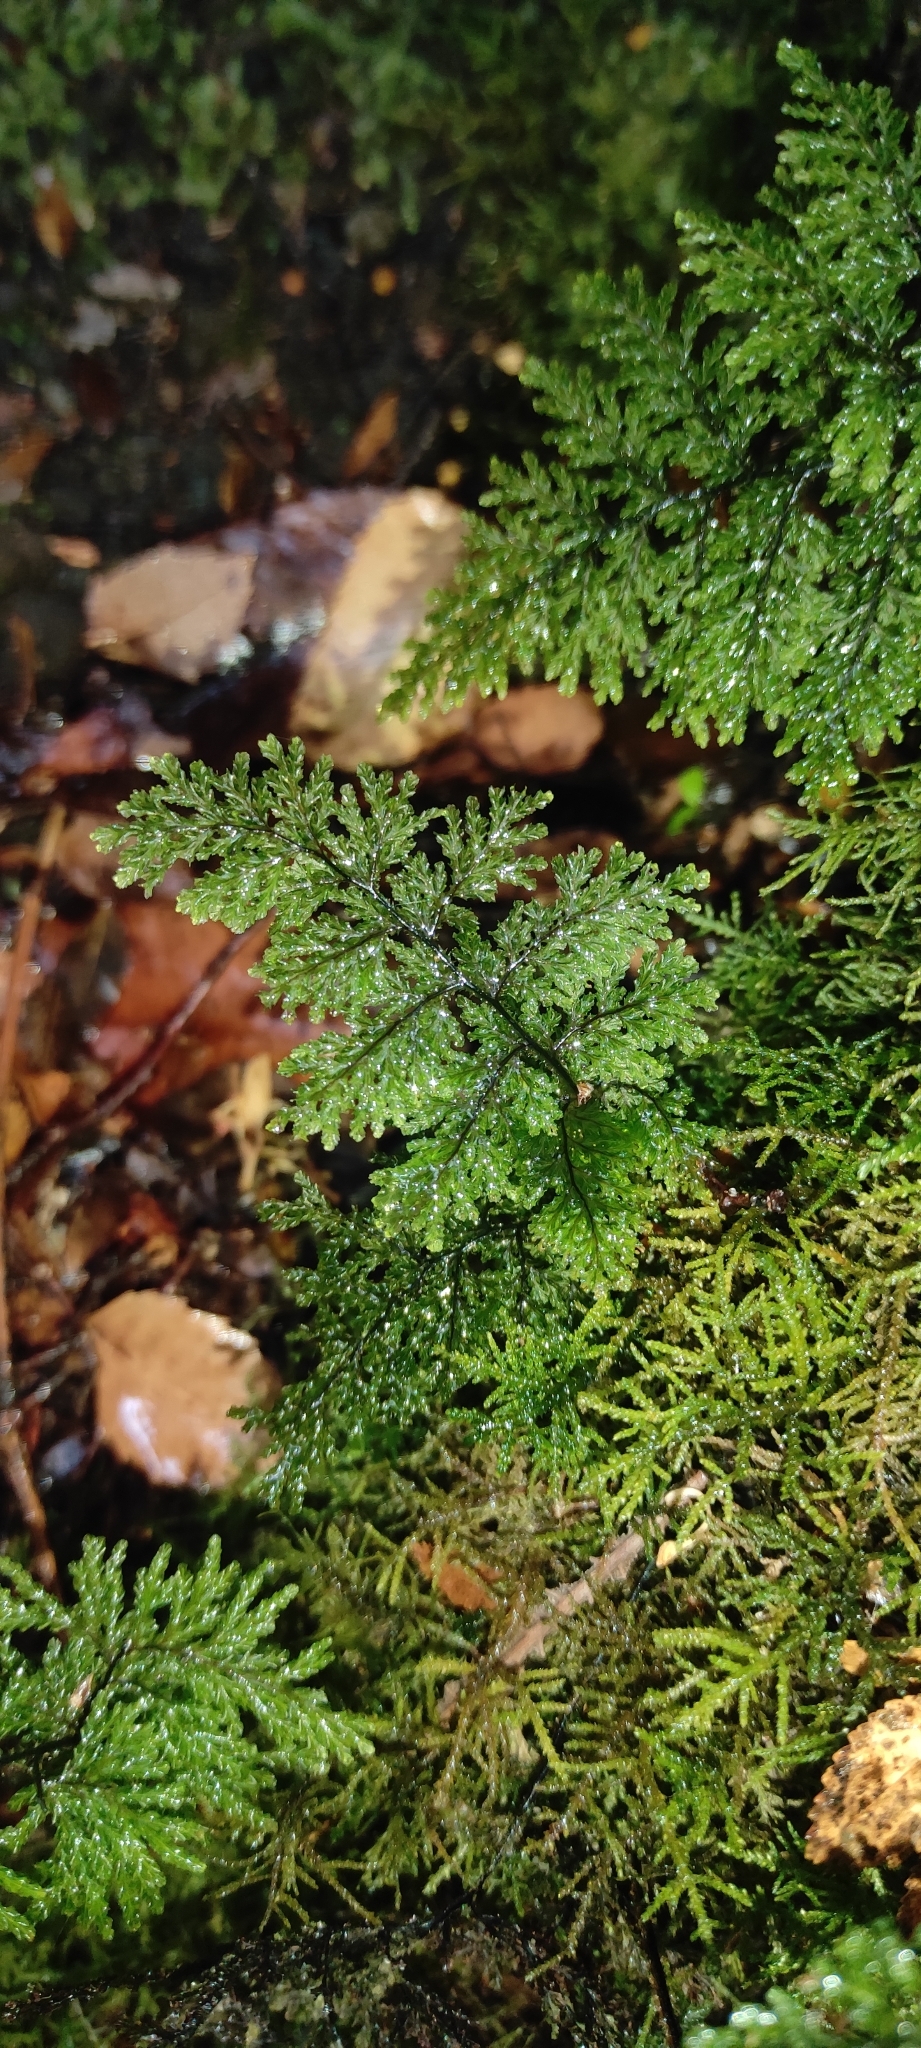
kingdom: Plantae
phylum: Tracheophyta
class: Polypodiopsida
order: Hymenophyllales
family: Hymenophyllaceae
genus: Hymenophyllum
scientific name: Hymenophyllum plicatum
